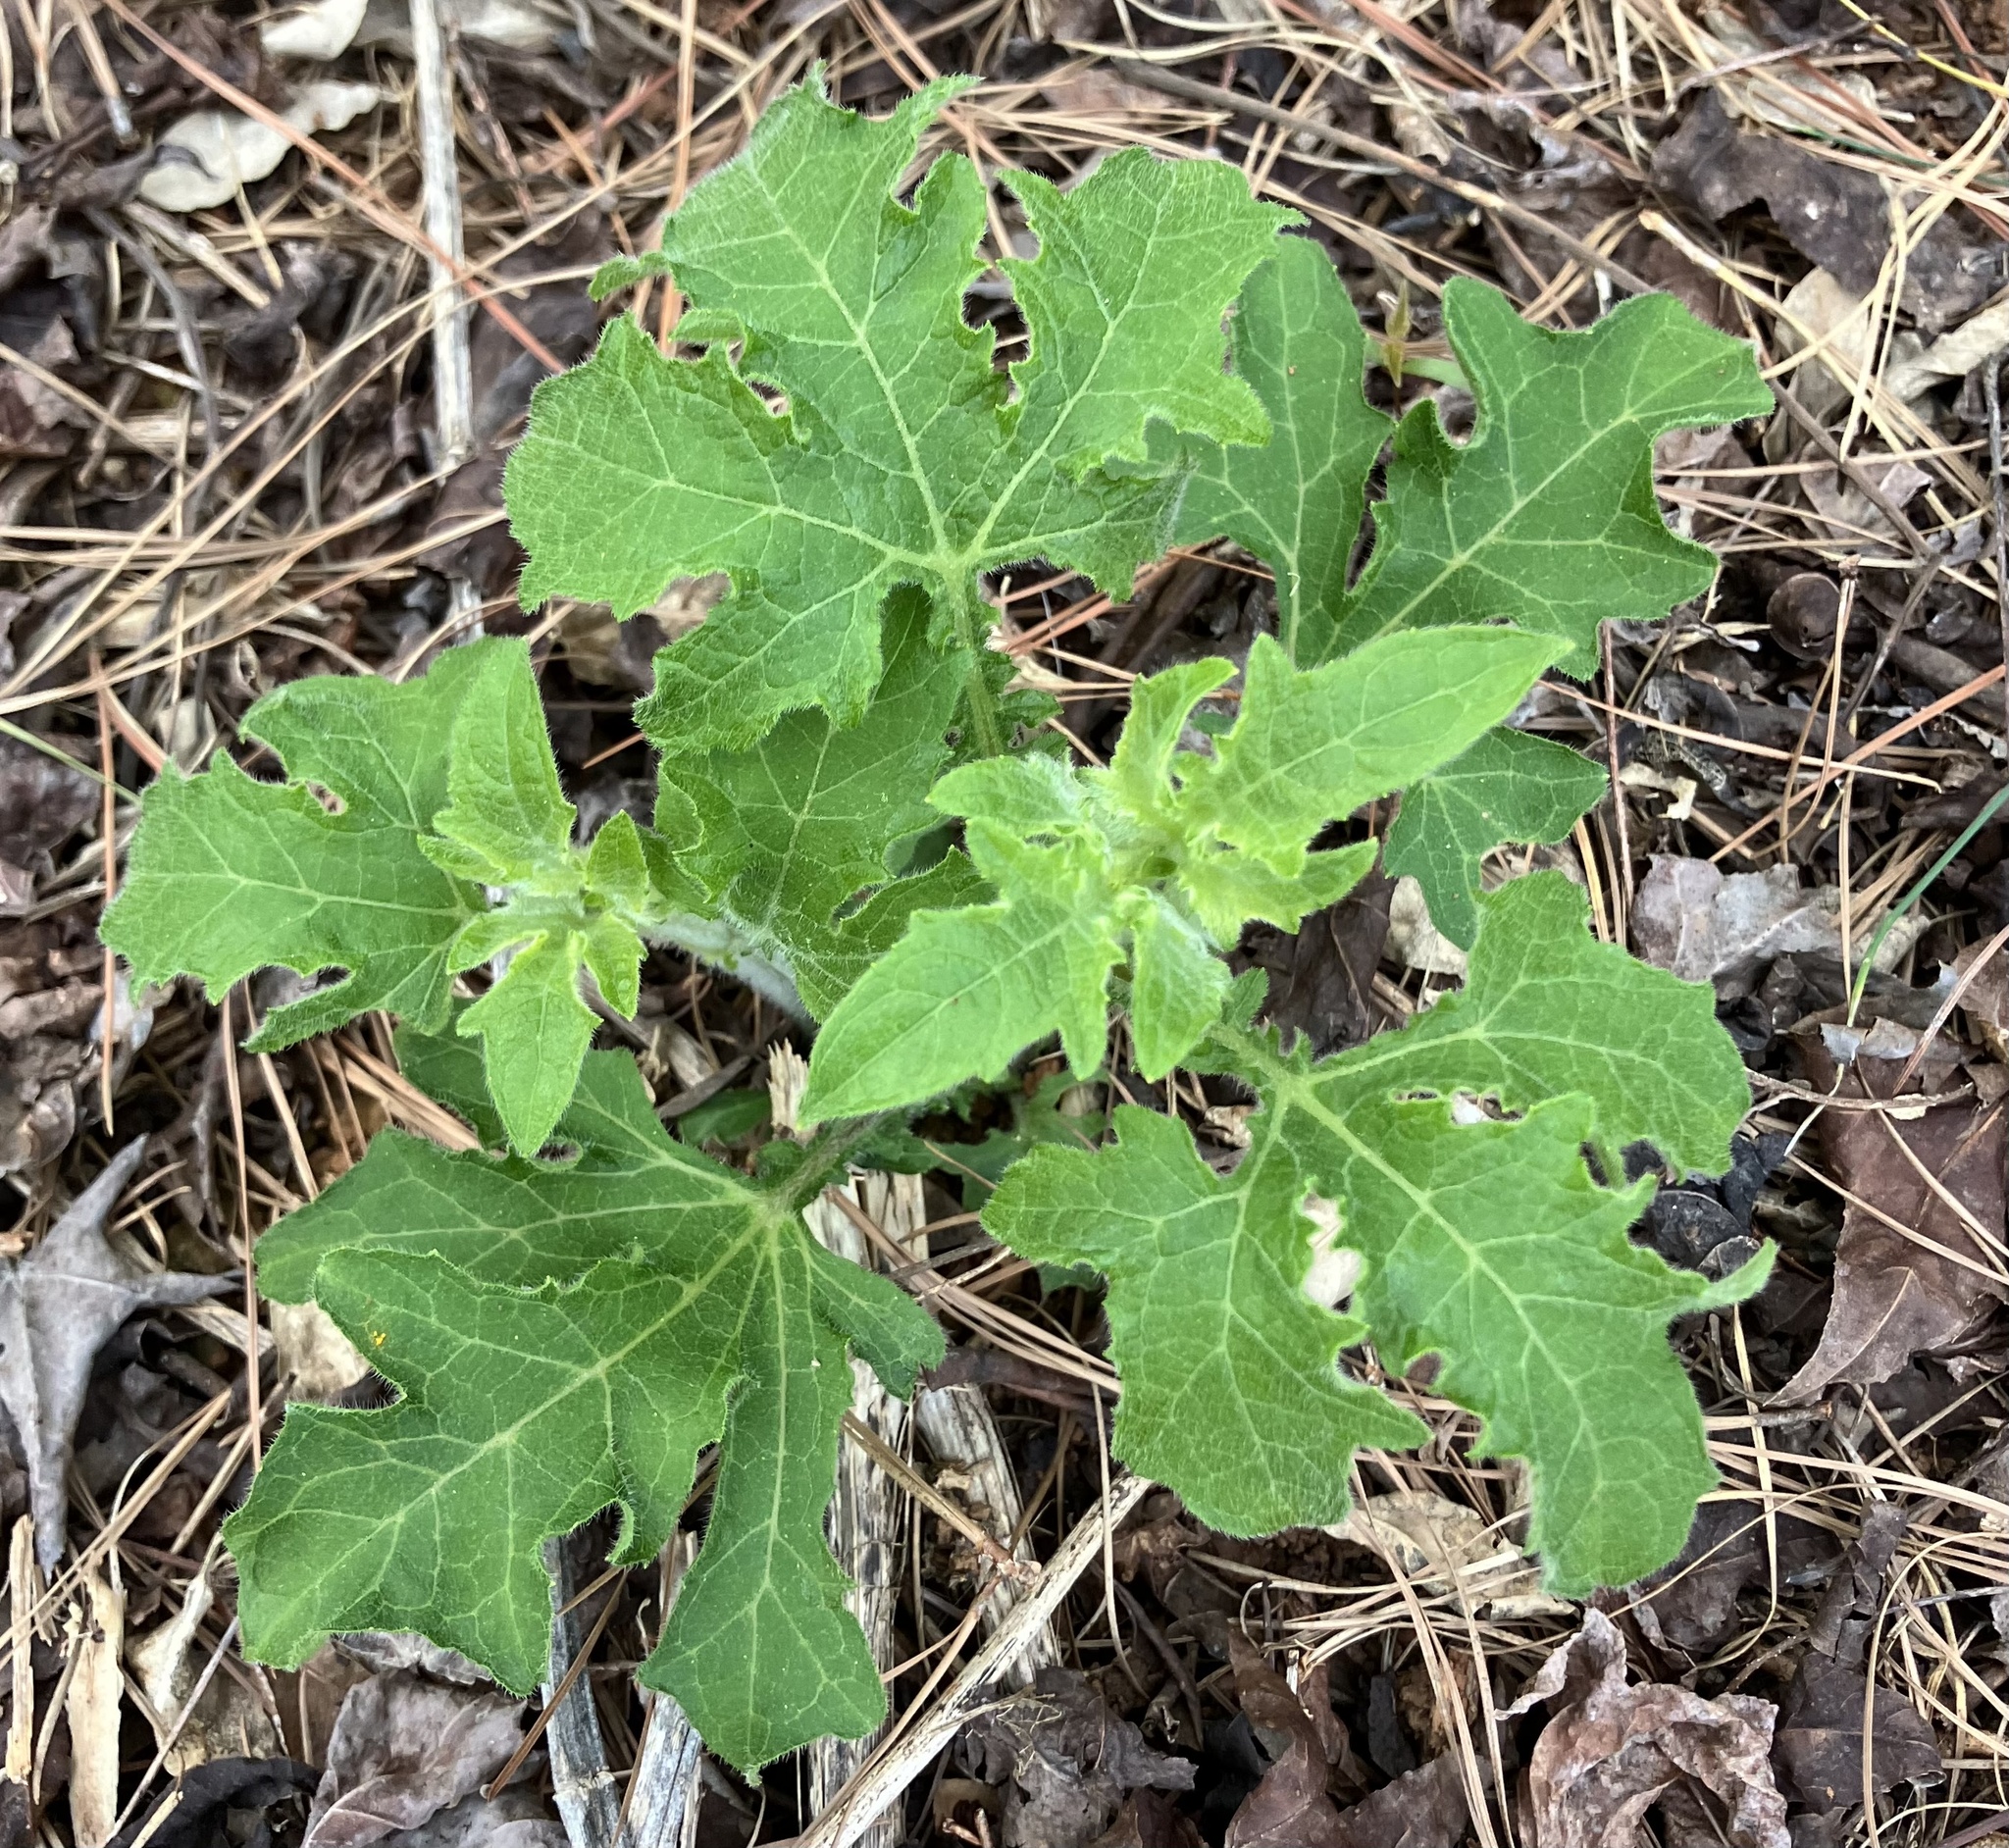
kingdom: Plantae
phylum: Tracheophyta
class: Magnoliopsida
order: Asterales
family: Asteraceae
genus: Smallanthus
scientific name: Smallanthus uvedalia
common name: Bear's-foot
